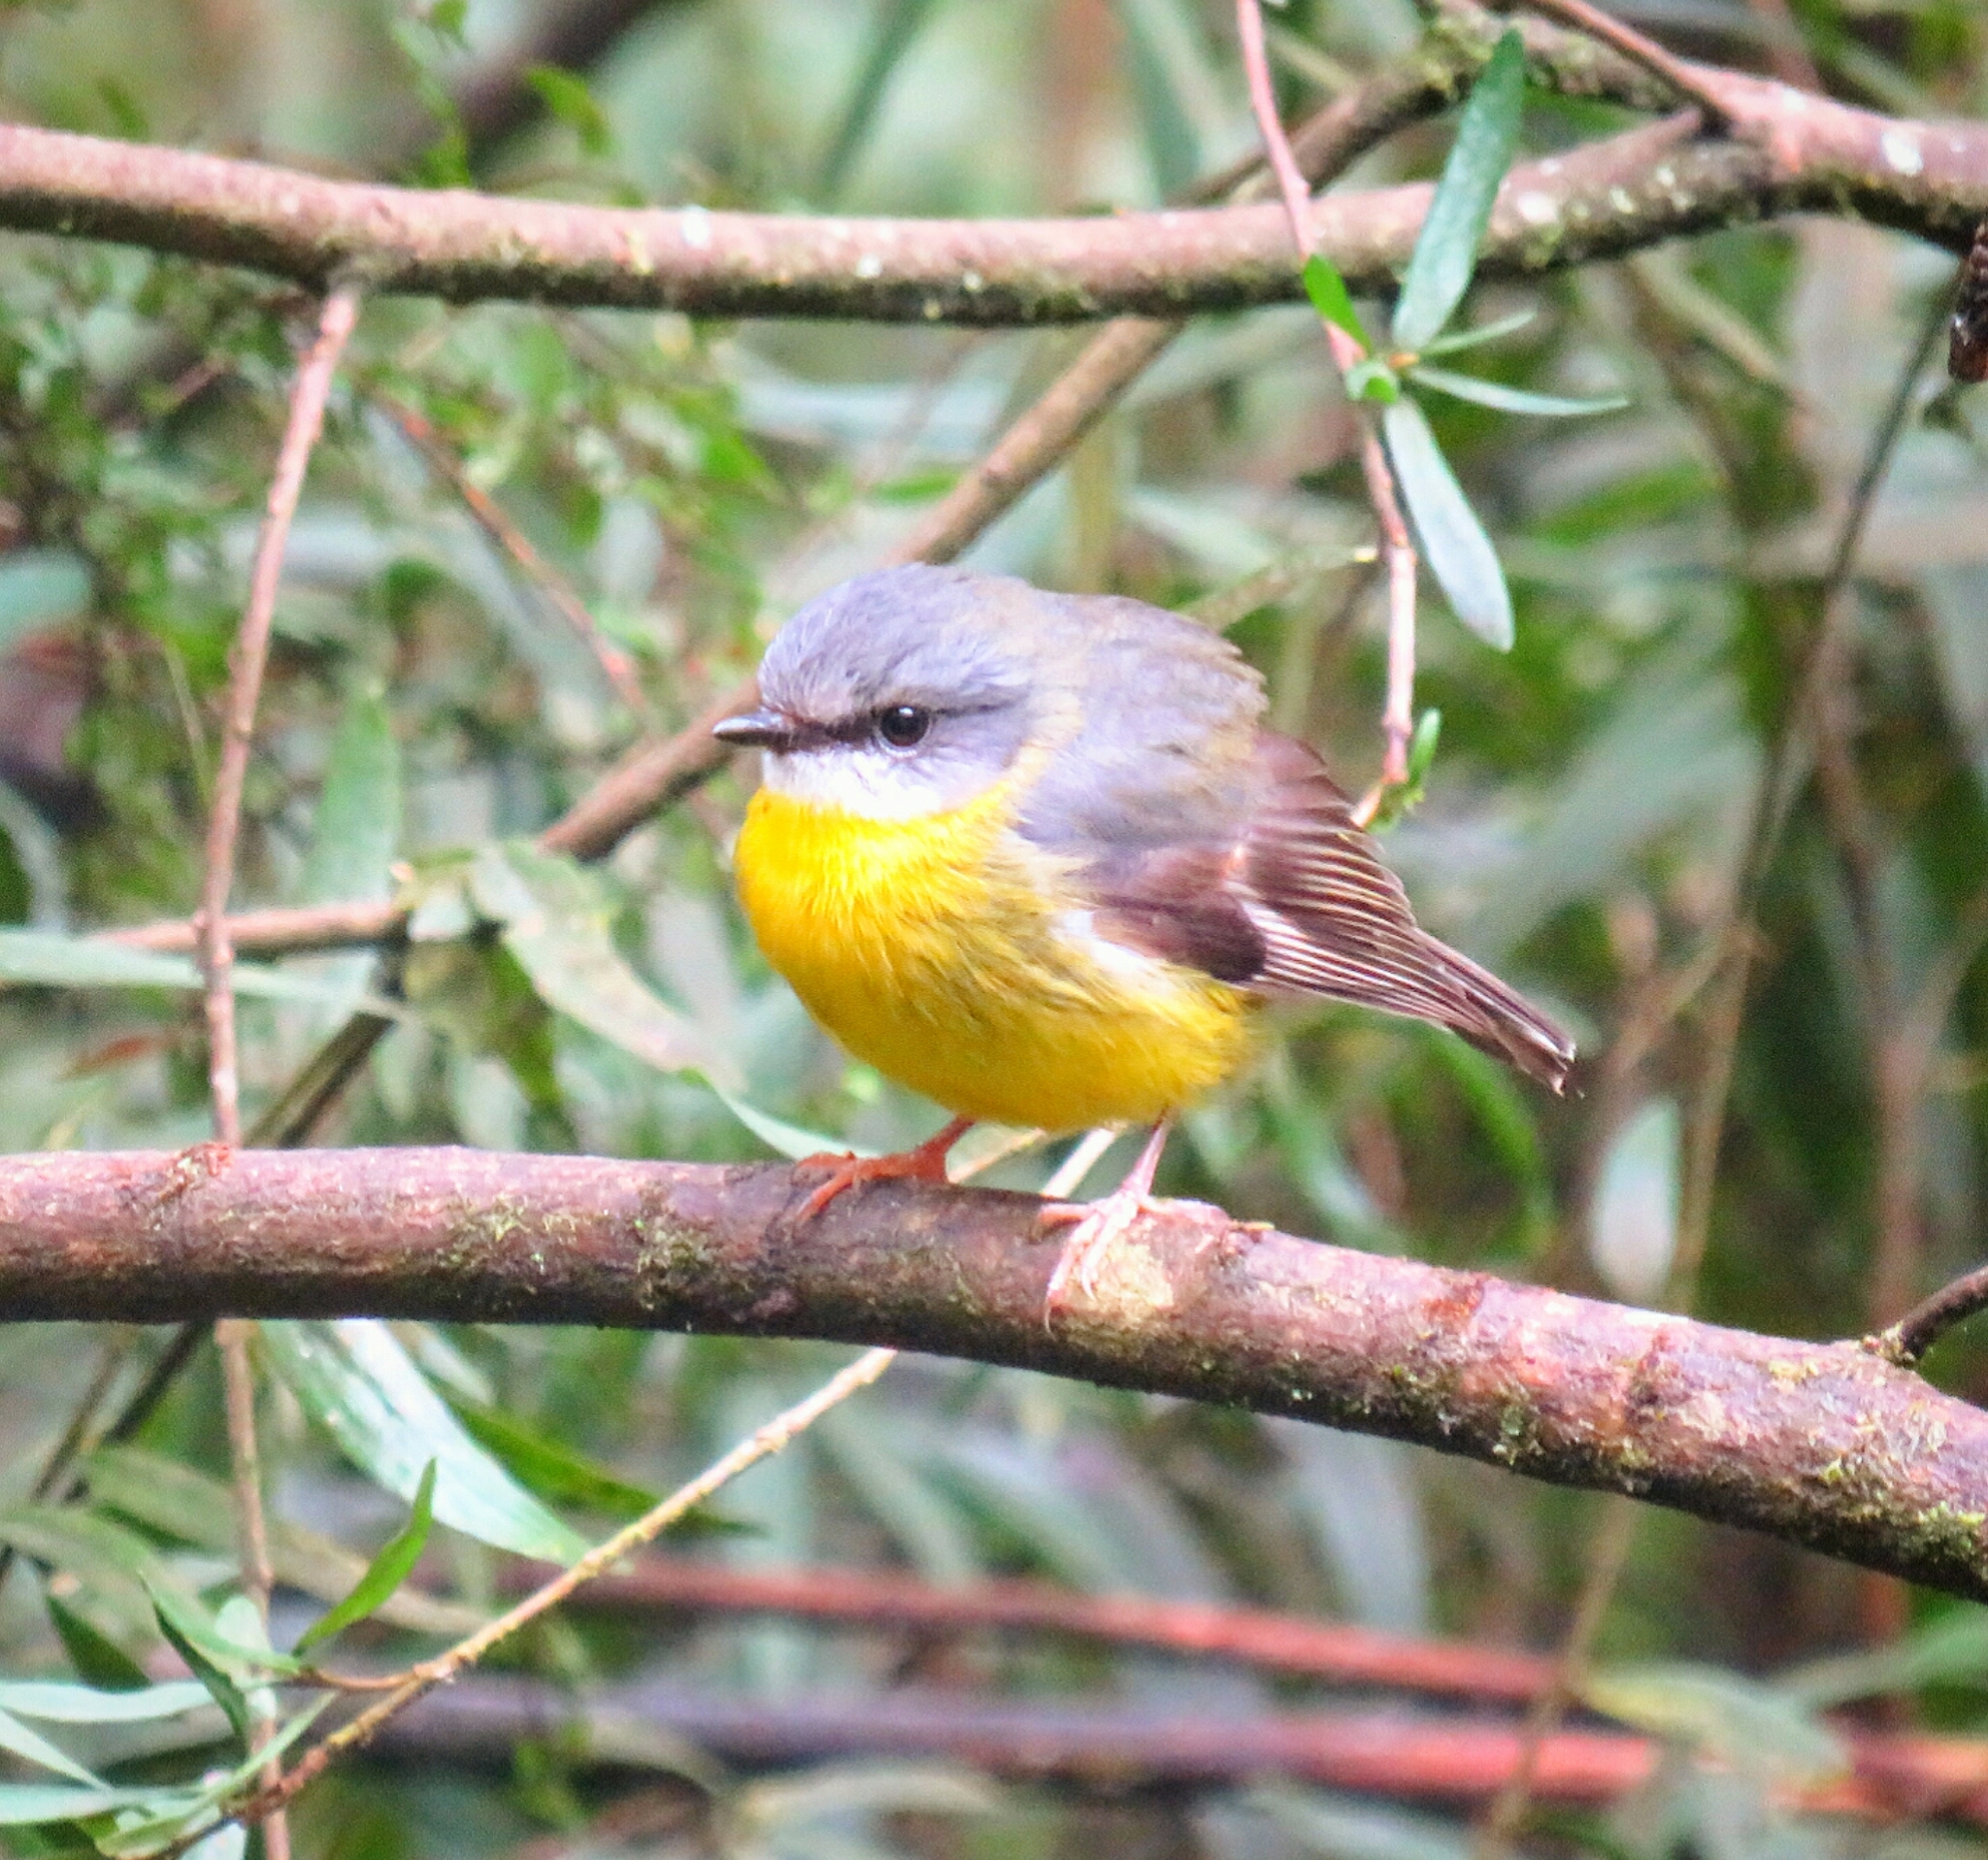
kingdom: Animalia
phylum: Chordata
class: Aves
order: Passeriformes
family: Petroicidae
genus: Eopsaltria
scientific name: Eopsaltria australis
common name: Eastern yellow robin
